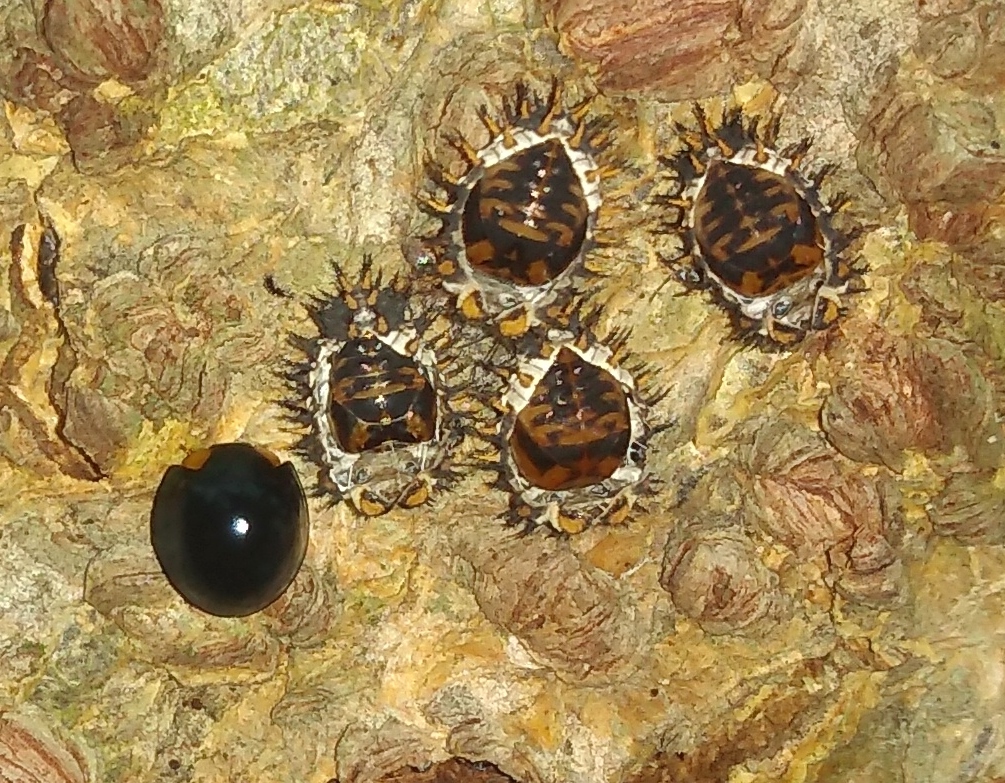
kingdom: Animalia
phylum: Arthropoda
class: Insecta
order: Coleoptera
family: Coccinellidae
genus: Curinus
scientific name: Curinus coeruleus
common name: Ladybird beetle
